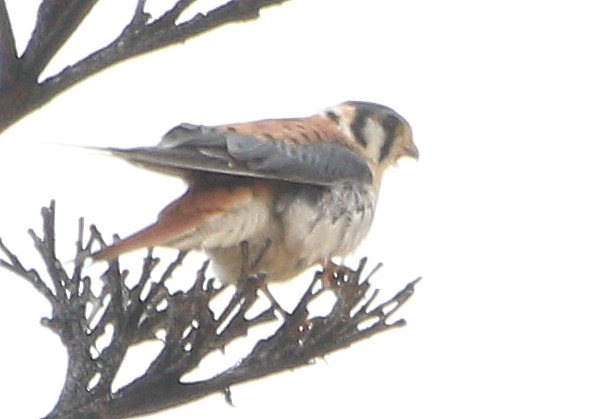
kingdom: Animalia
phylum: Chordata
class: Aves
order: Falconiformes
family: Falconidae
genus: Falco
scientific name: Falco sparverius
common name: American kestrel
